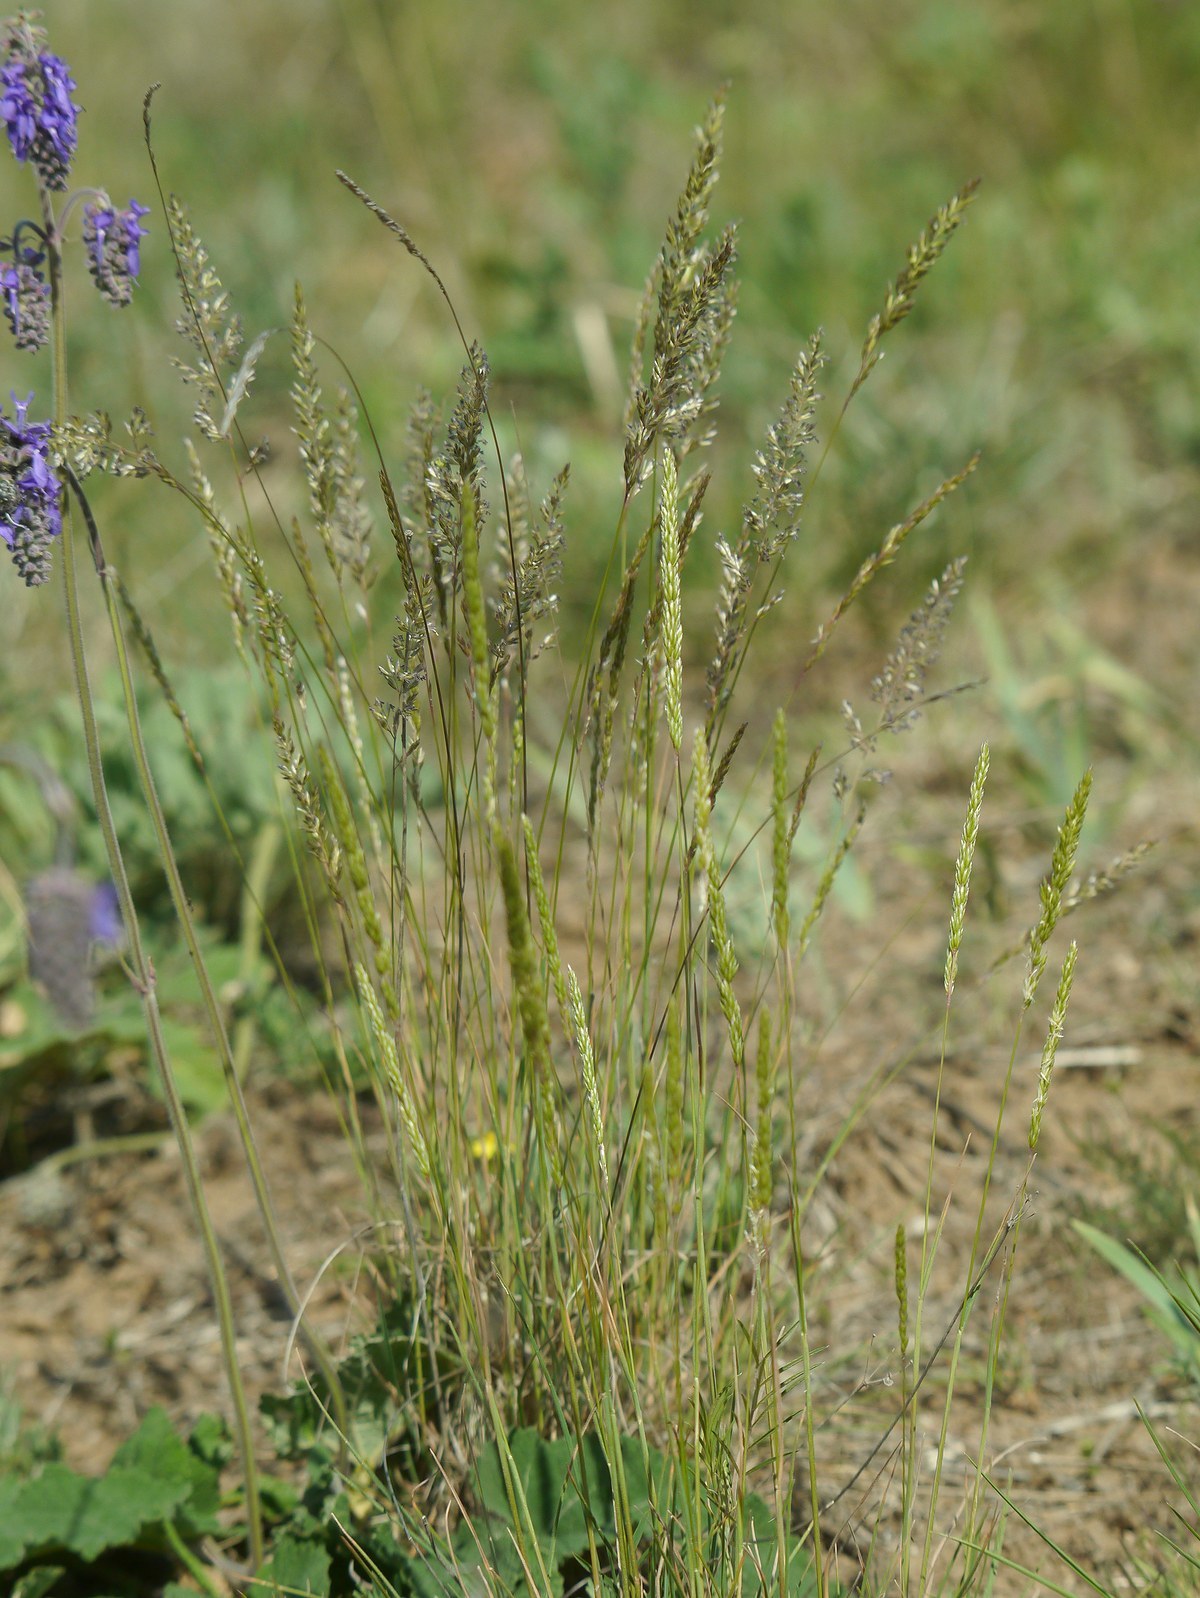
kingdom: Plantae
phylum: Tracheophyta
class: Liliopsida
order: Poales
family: Poaceae
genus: Koeleria
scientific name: Koeleria macrantha
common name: Crested hair-grass
